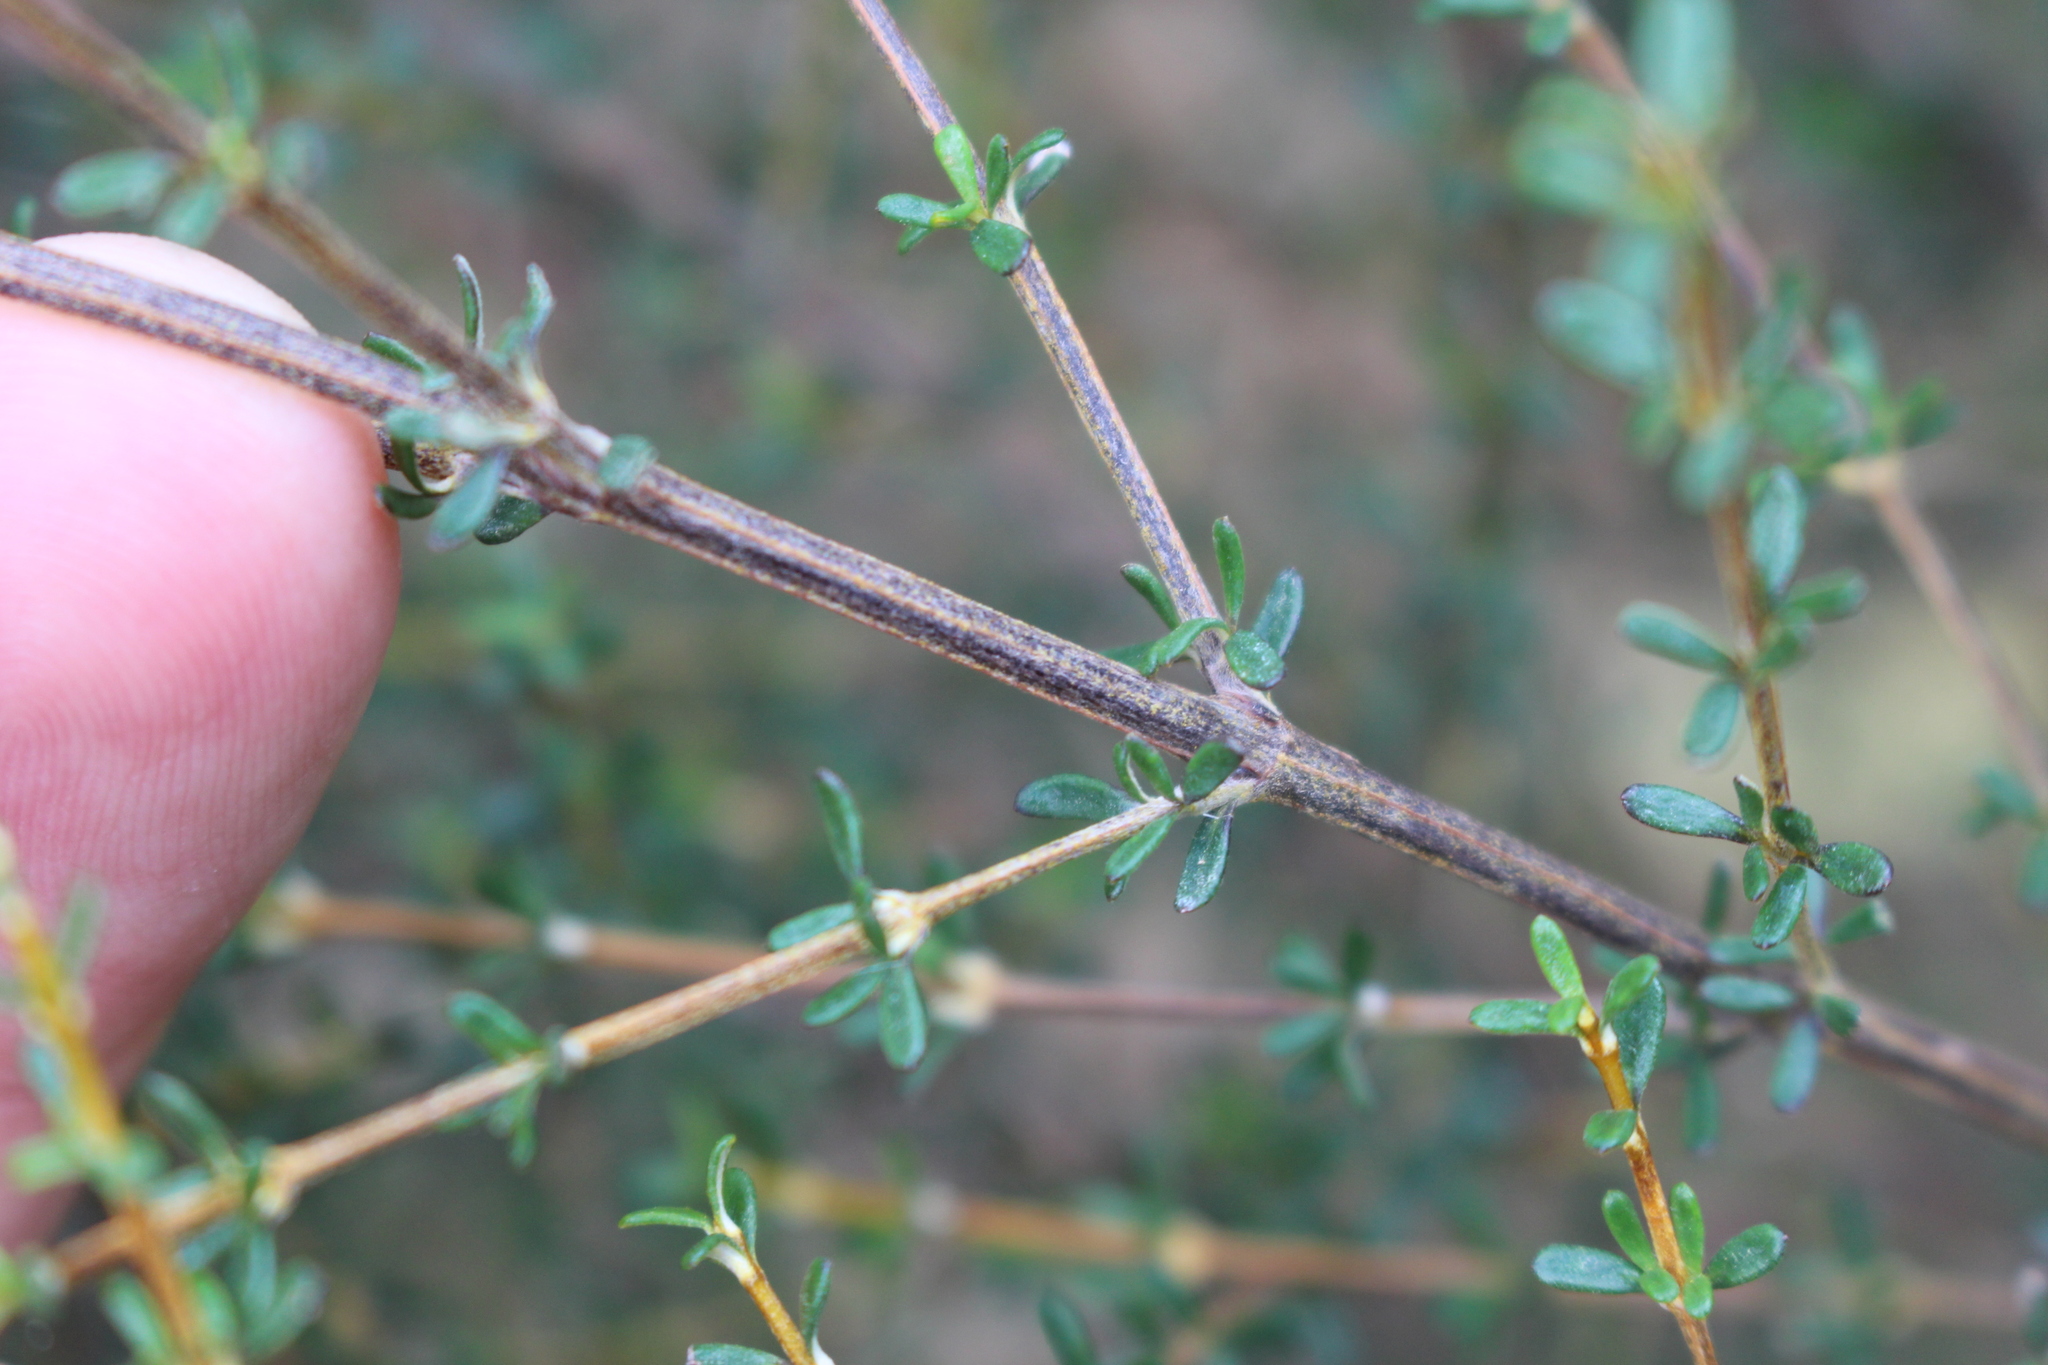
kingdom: Plantae
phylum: Tracheophyta
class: Magnoliopsida
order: Asterales
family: Asteraceae
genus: Olearia
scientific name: Olearia solandri
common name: Coastal daisybush
